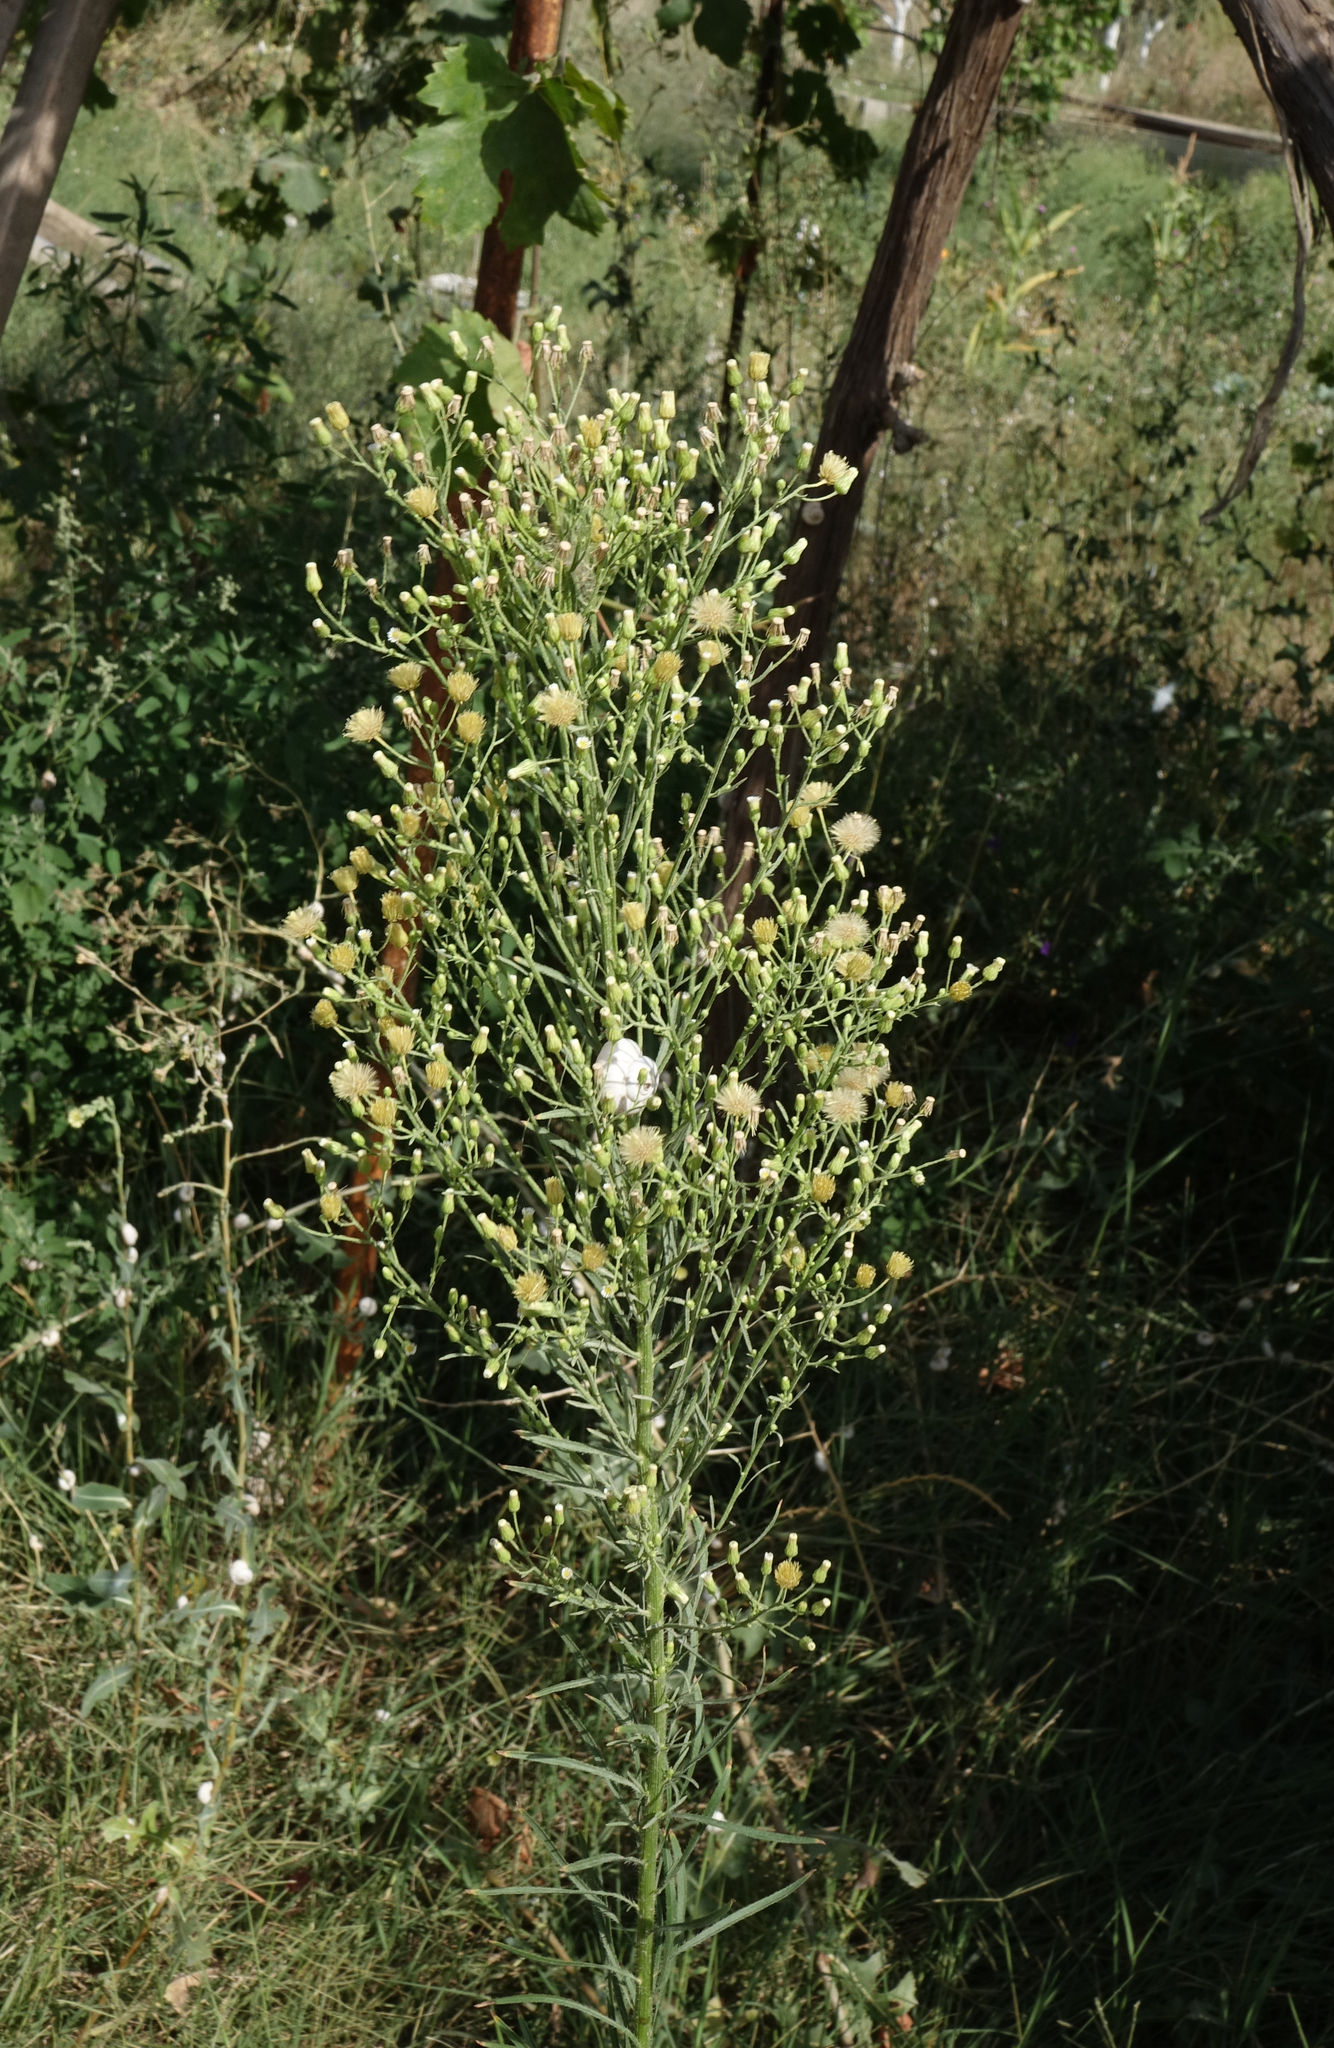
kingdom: Plantae
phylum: Tracheophyta
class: Magnoliopsida
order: Asterales
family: Asteraceae
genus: Erigeron
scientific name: Erigeron canadensis
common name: Canadian fleabane
